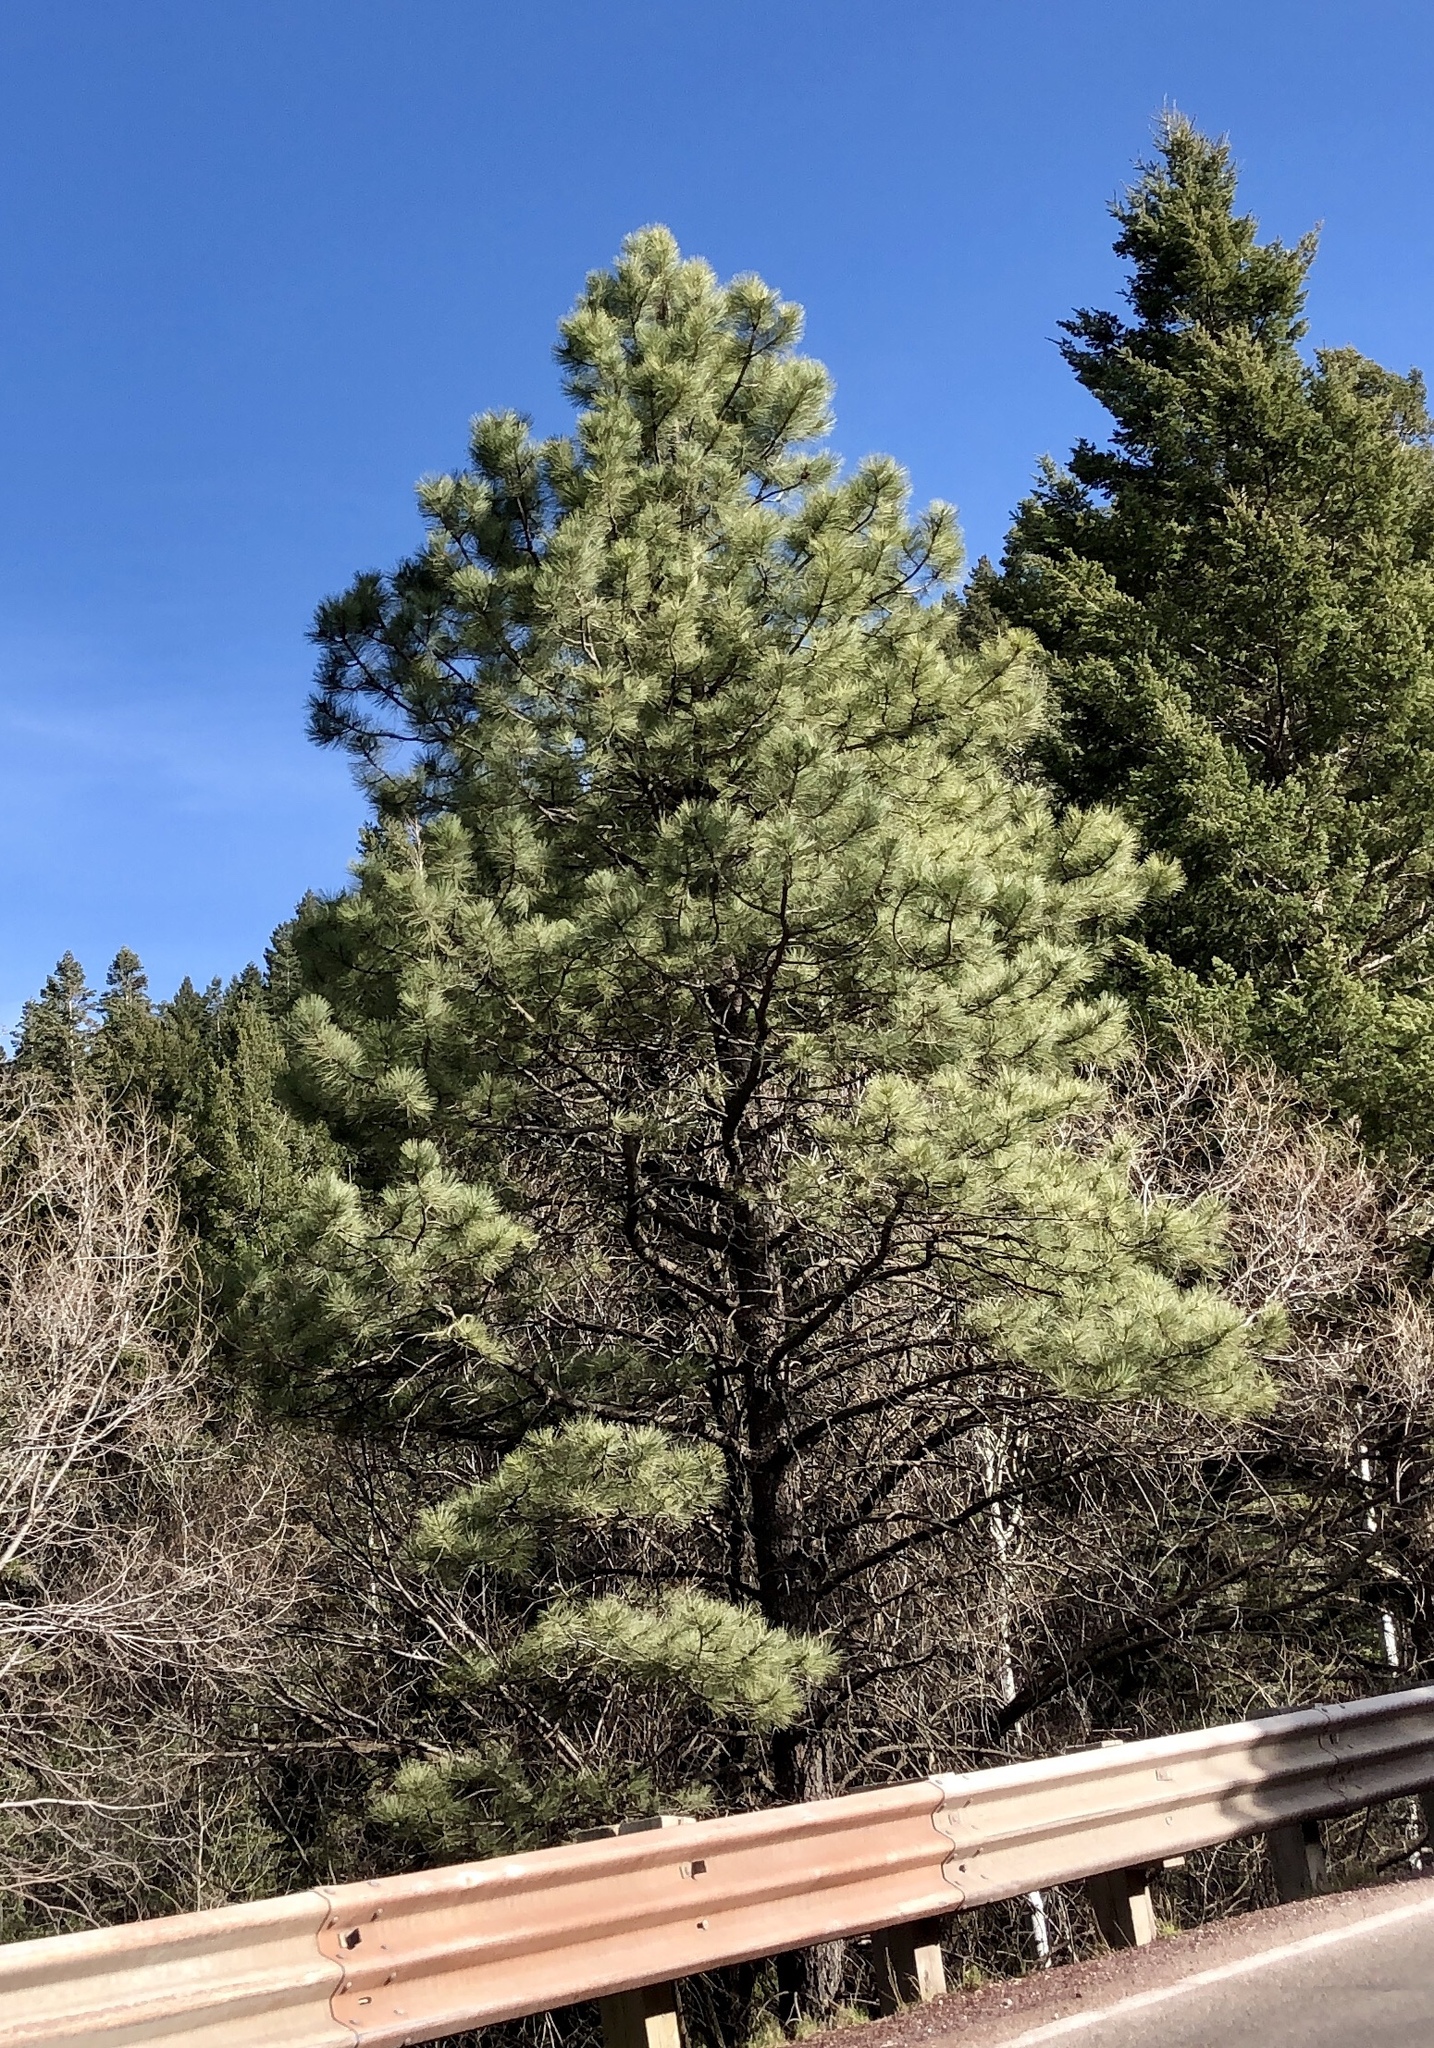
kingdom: Plantae
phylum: Tracheophyta
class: Pinopsida
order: Pinales
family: Pinaceae
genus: Pinus
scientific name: Pinus ponderosa
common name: Western yellow-pine
